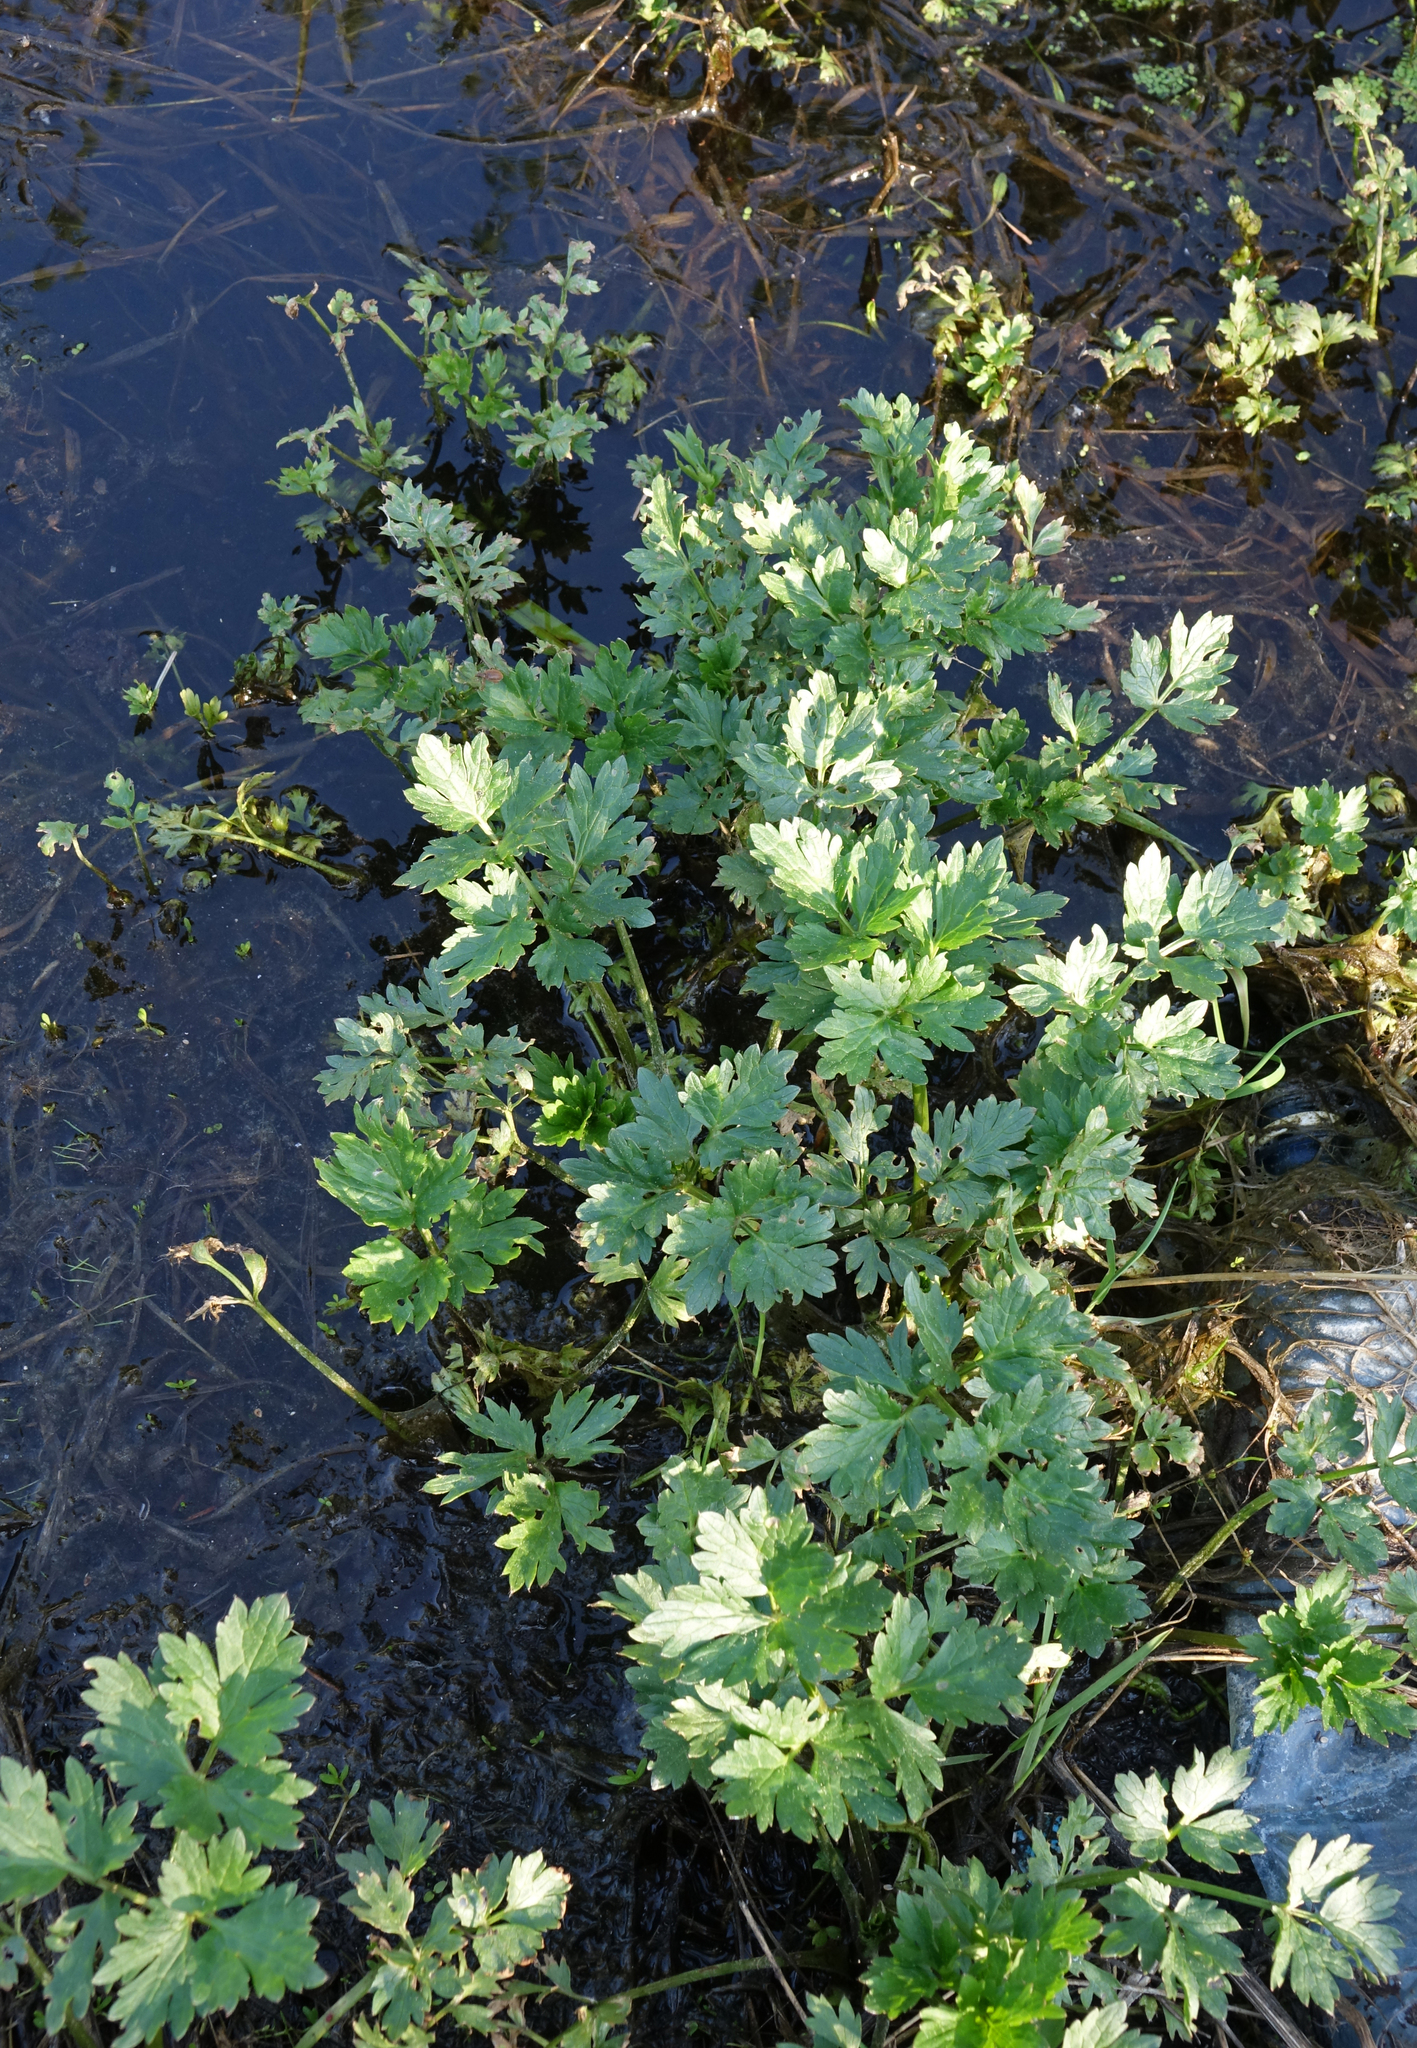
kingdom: Plantae
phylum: Tracheophyta
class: Magnoliopsida
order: Ranunculales
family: Ranunculaceae
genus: Ranunculus
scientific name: Ranunculus repens
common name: Creeping buttercup
